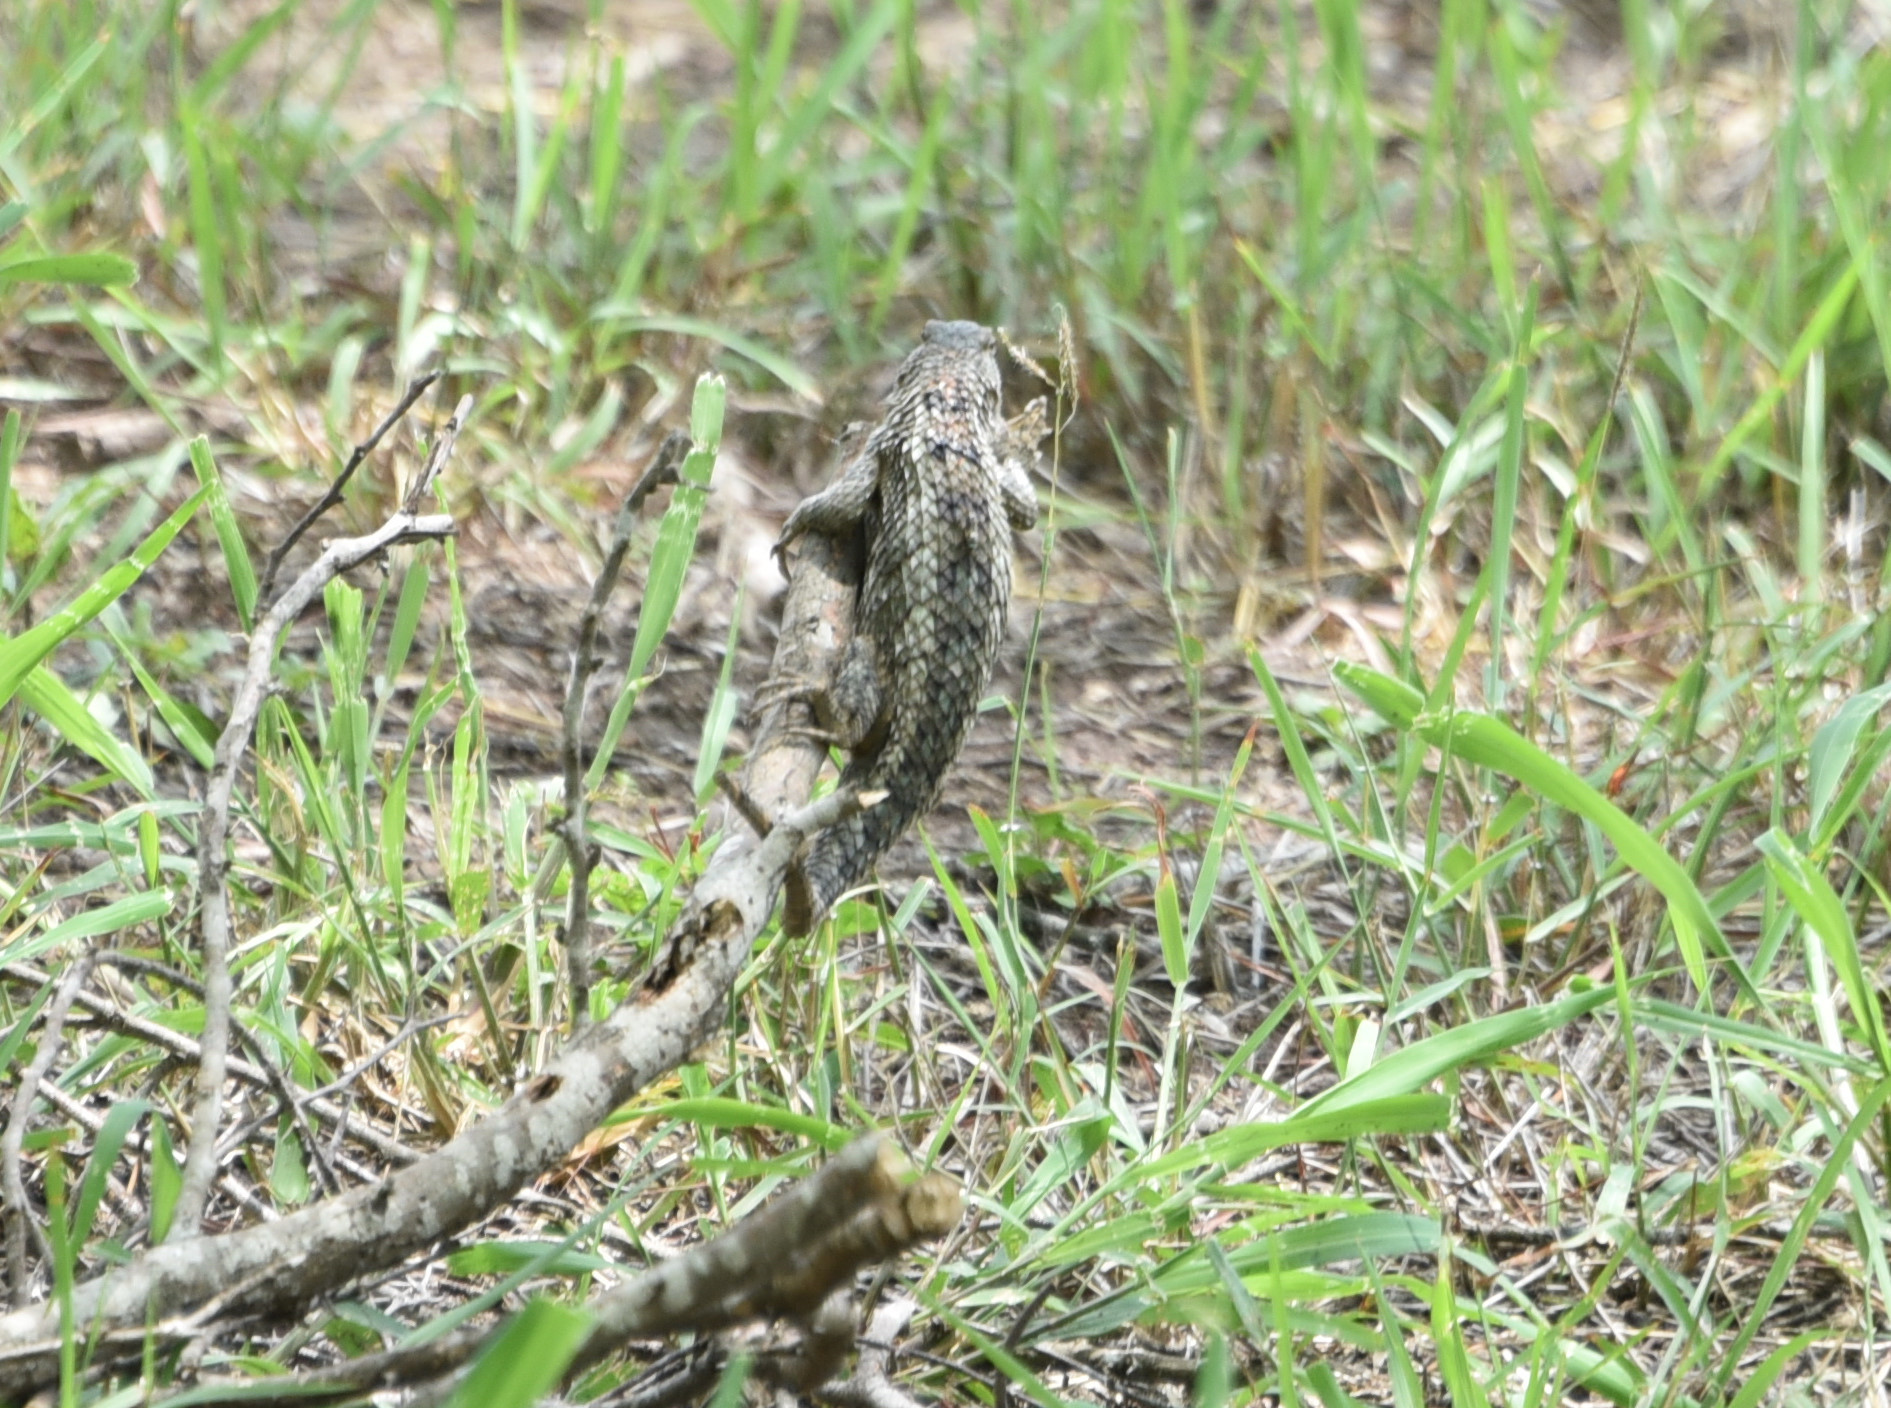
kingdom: Animalia
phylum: Chordata
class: Squamata
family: Phrynosomatidae
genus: Sceloporus
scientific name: Sceloporus olivaceus
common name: Texas spiny lizard
